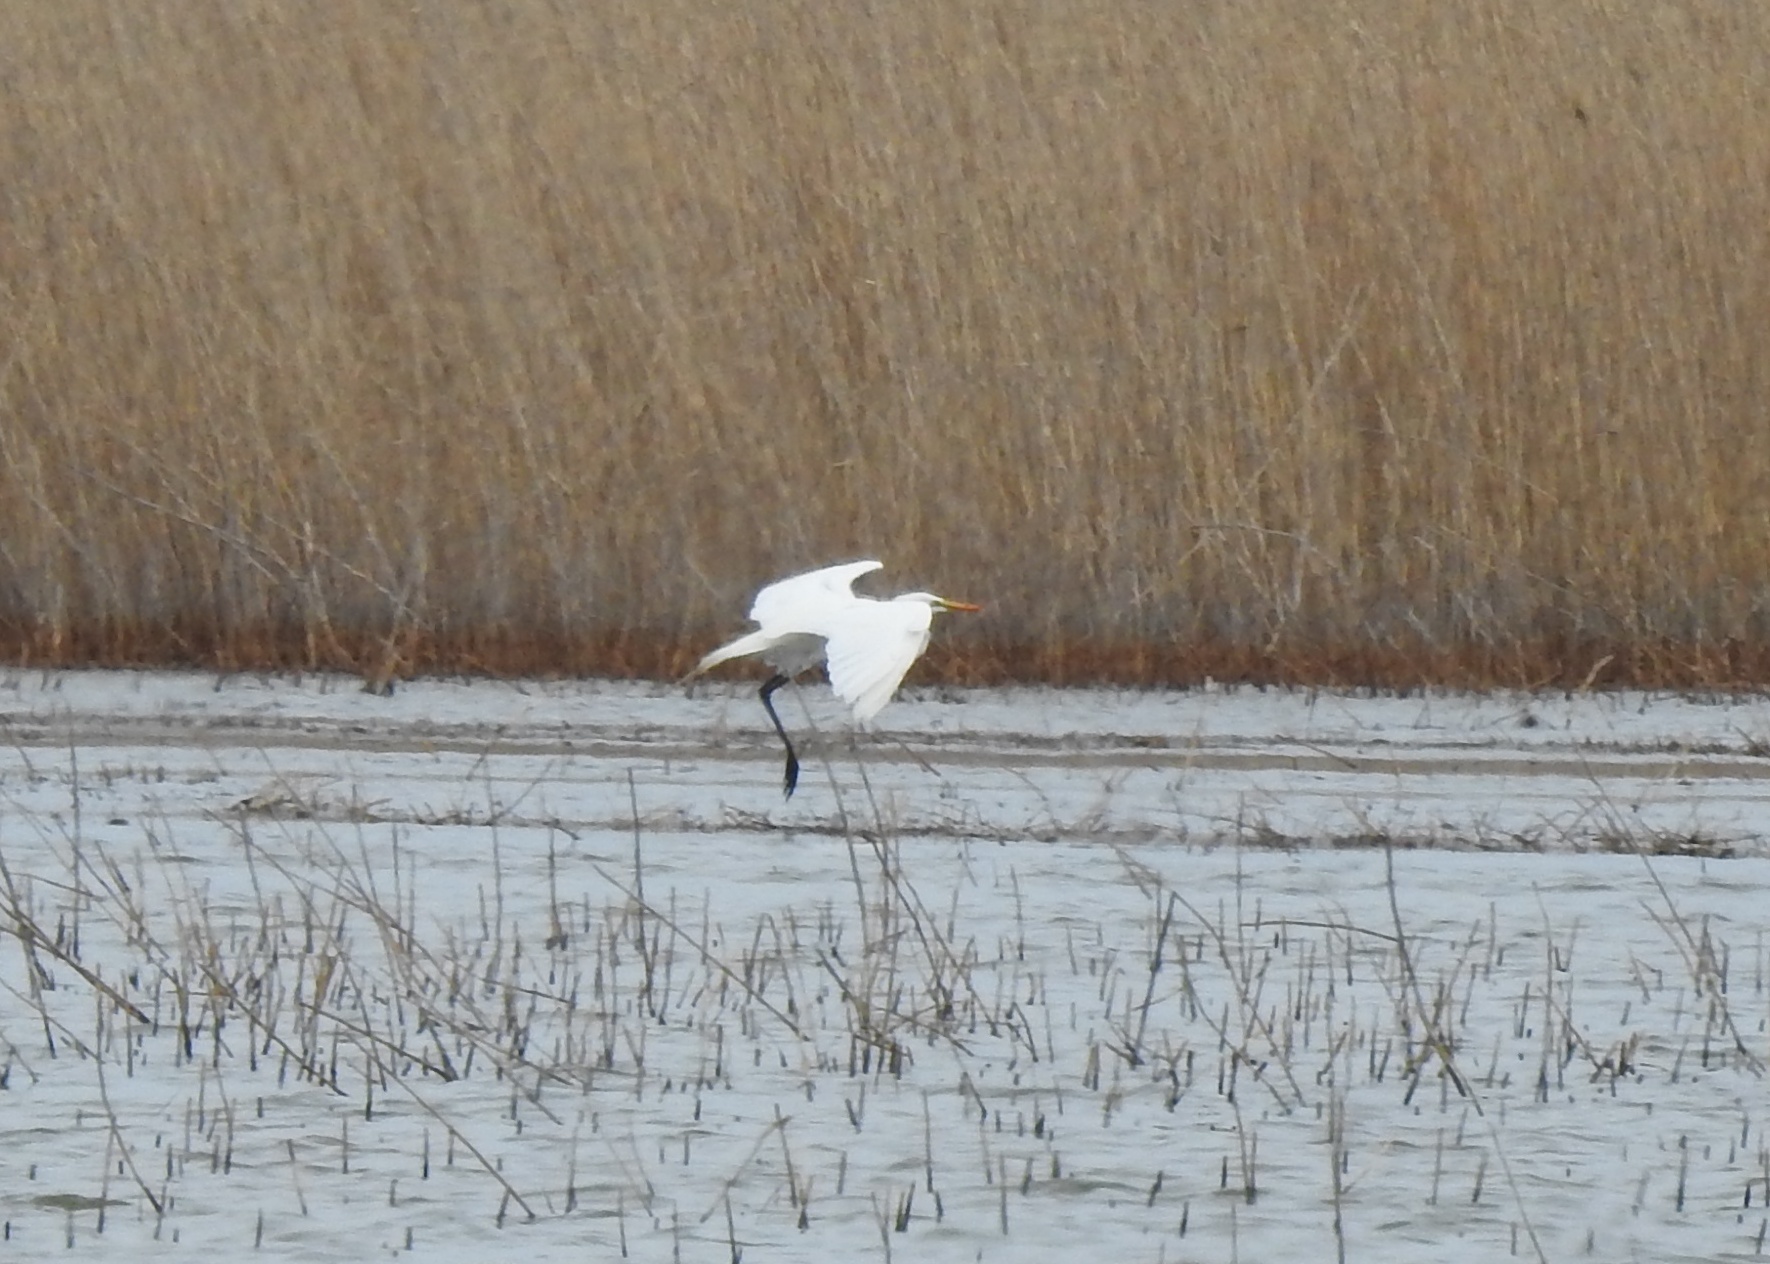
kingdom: Animalia
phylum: Chordata
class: Aves
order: Pelecaniformes
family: Ardeidae
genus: Ardea
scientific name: Ardea alba
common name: Great egret
